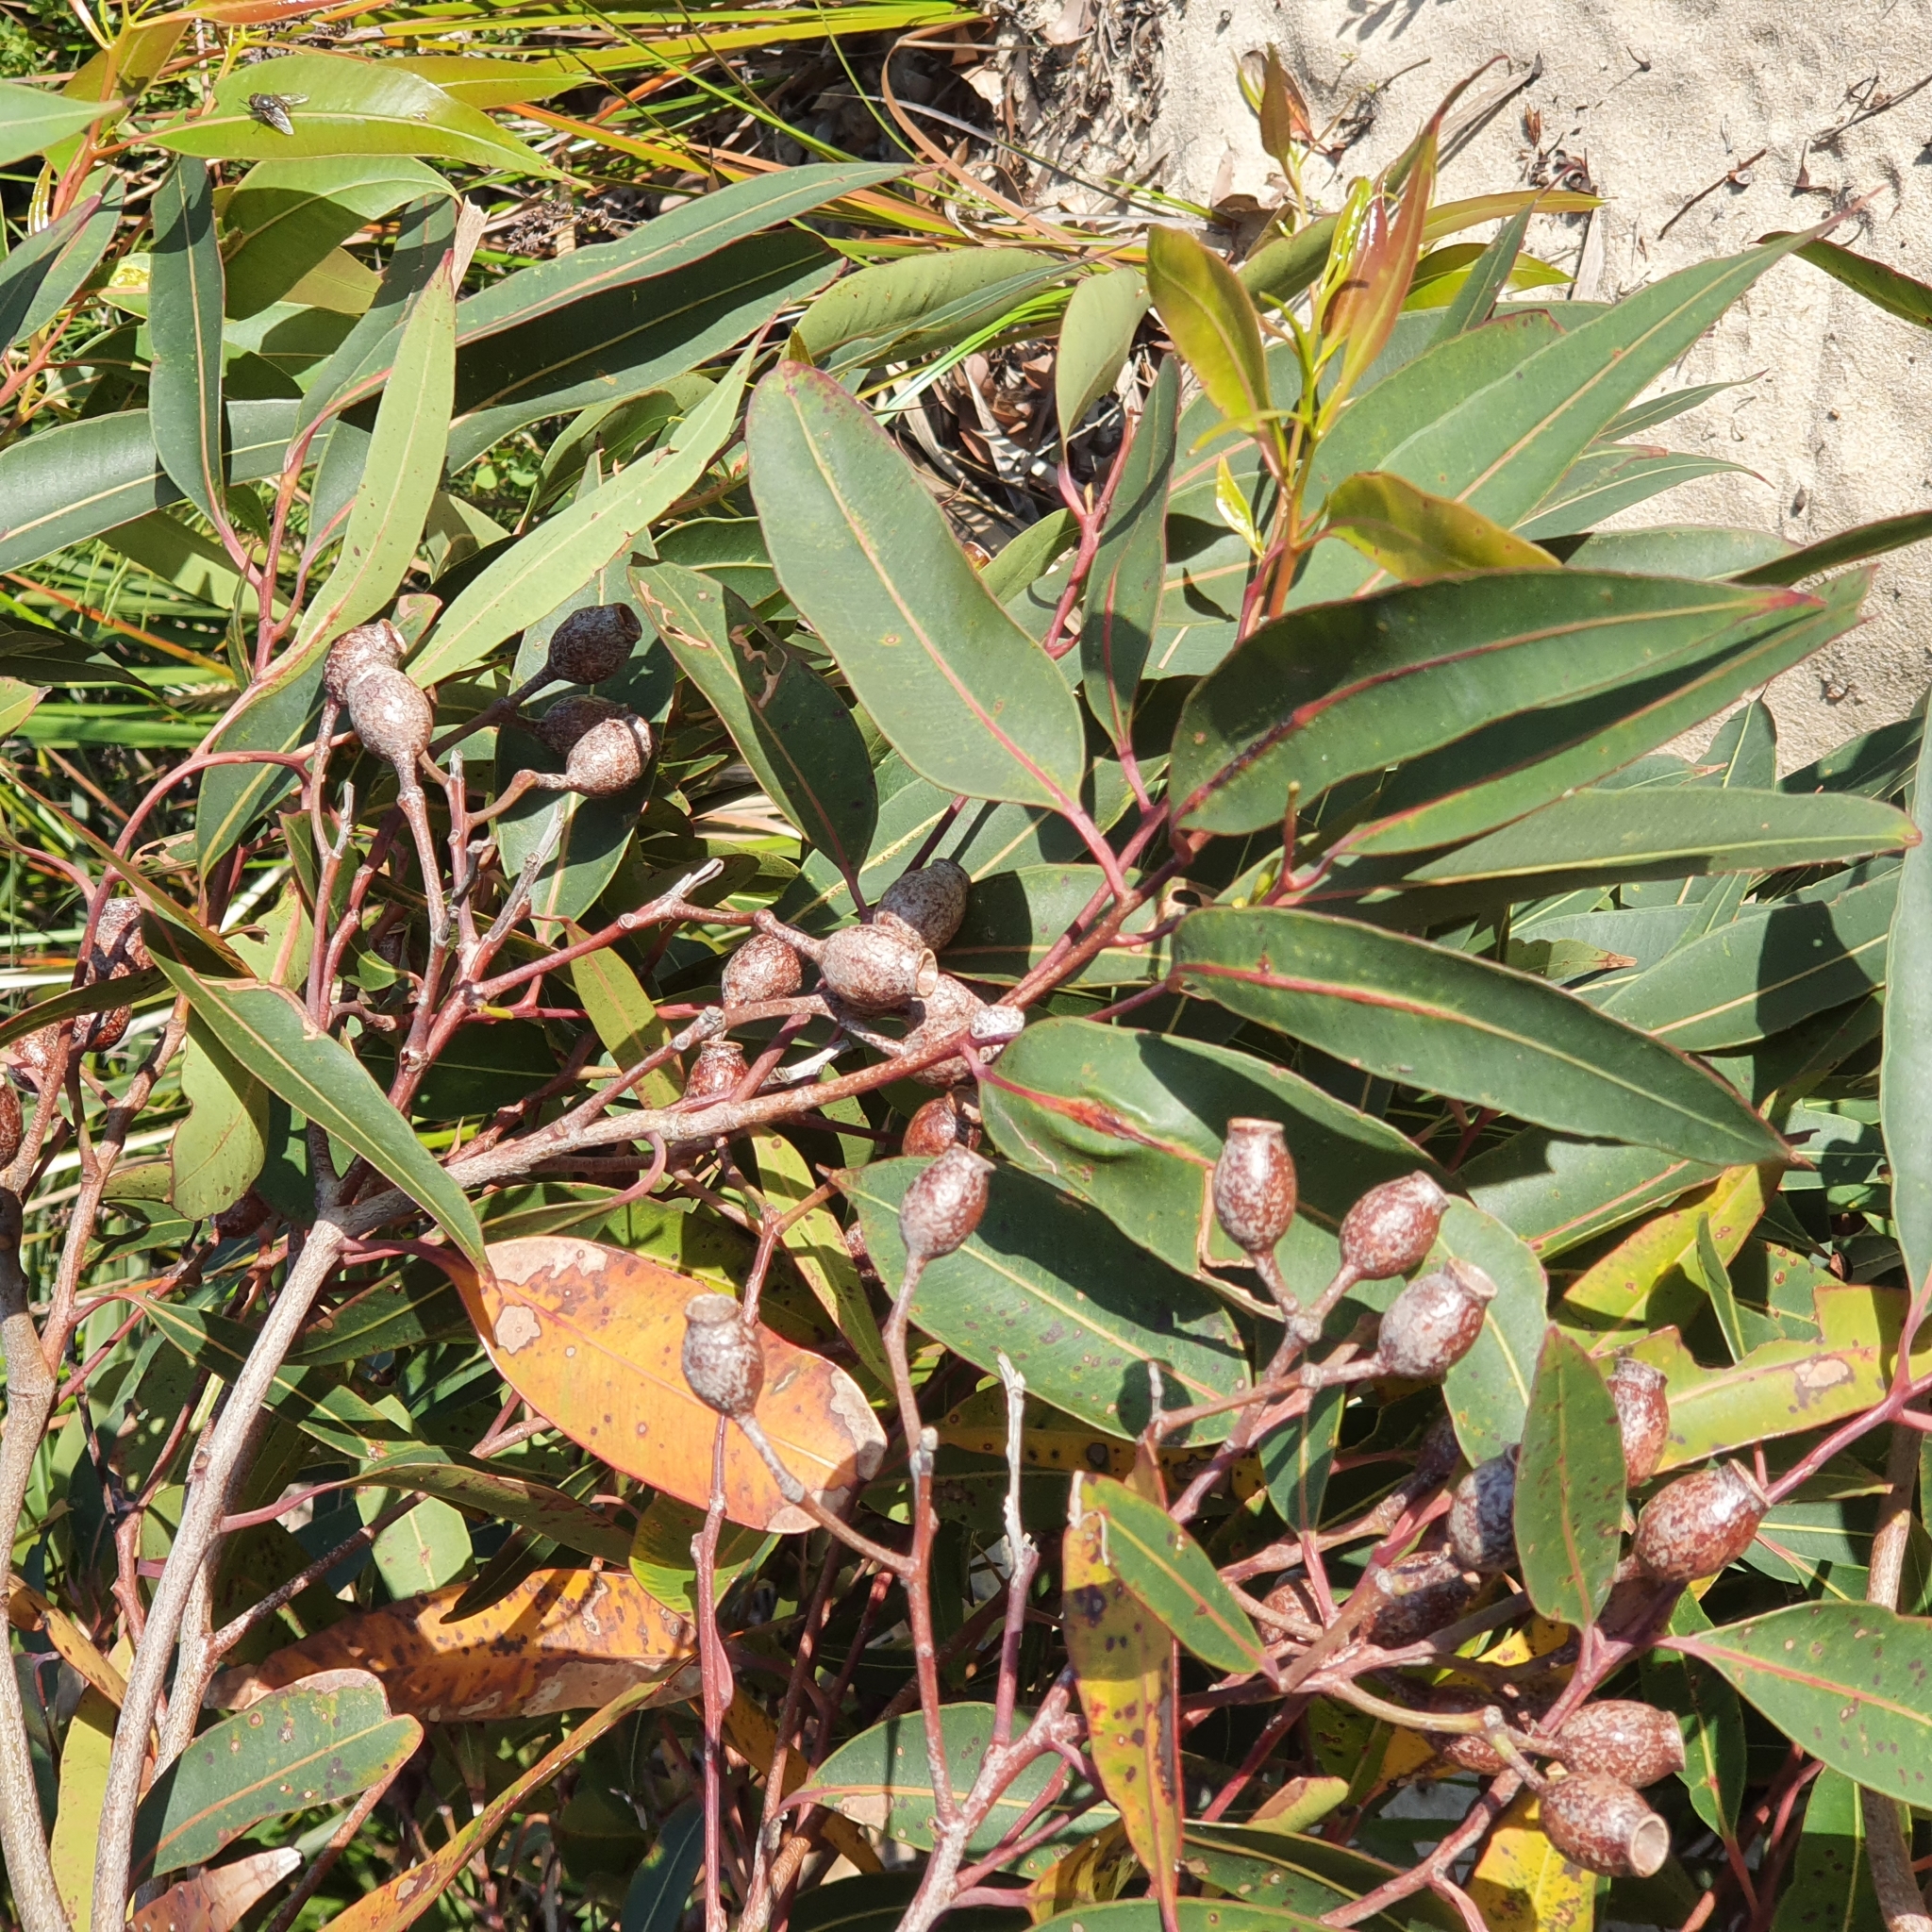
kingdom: Plantae
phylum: Tracheophyta
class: Magnoliopsida
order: Myrtales
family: Myrtaceae
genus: Corymbia
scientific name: Corymbia gummifera
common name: Red bloodwood
